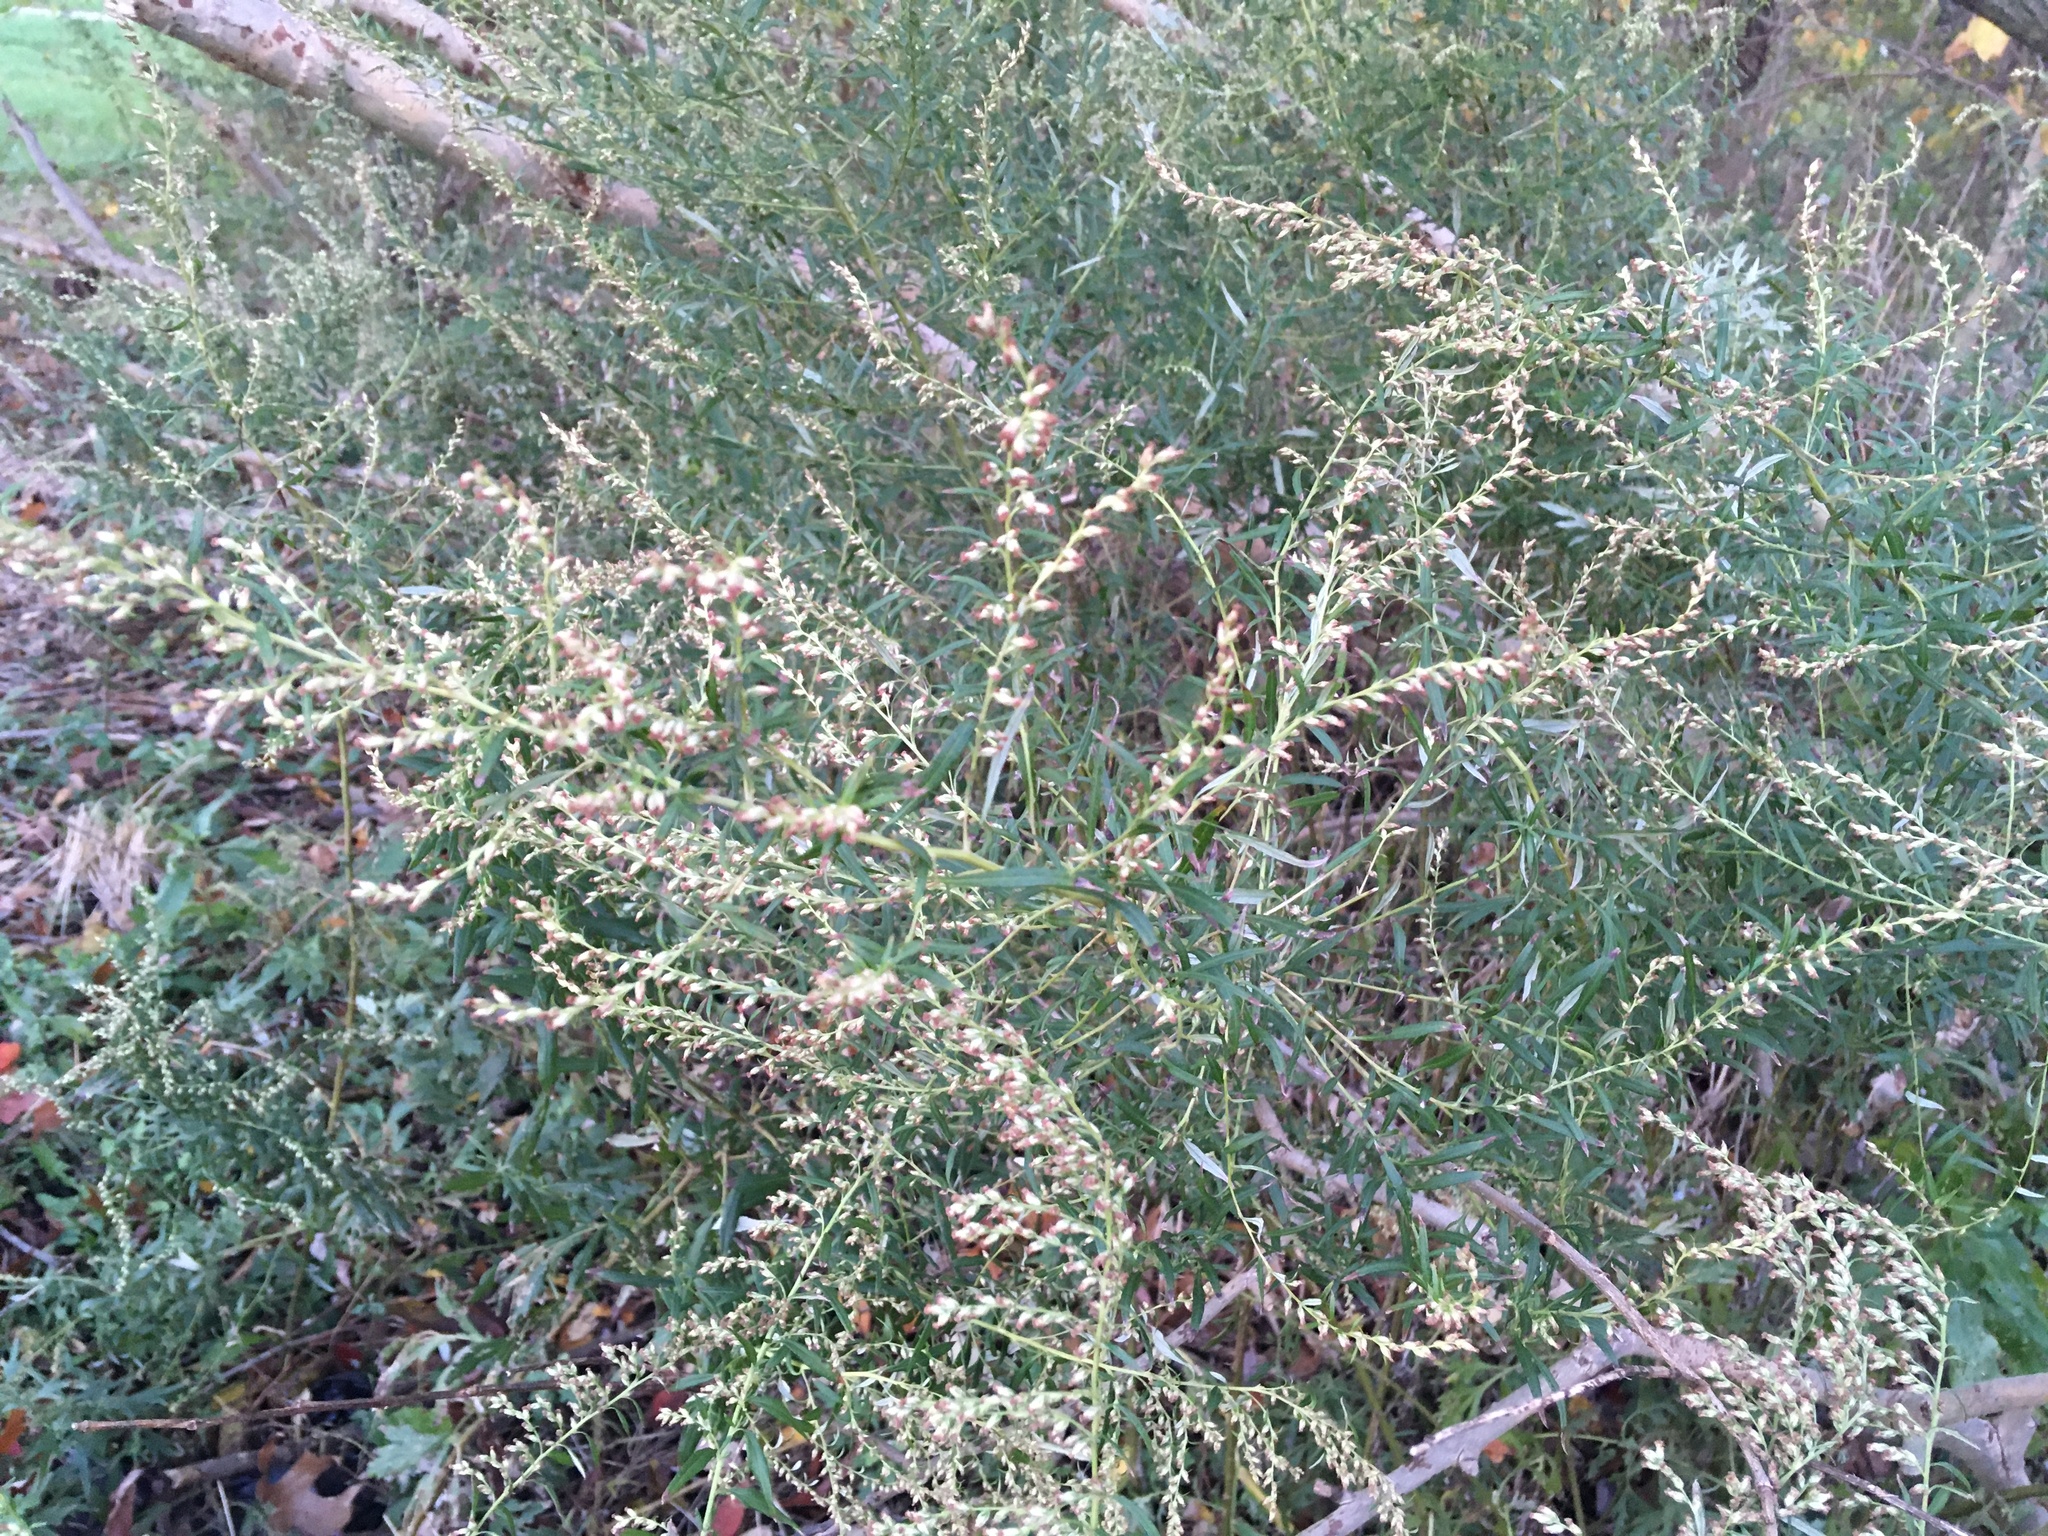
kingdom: Plantae
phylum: Tracheophyta
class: Magnoliopsida
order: Asterales
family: Asteraceae
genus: Artemisia
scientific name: Artemisia vulgaris
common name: Mugwort
